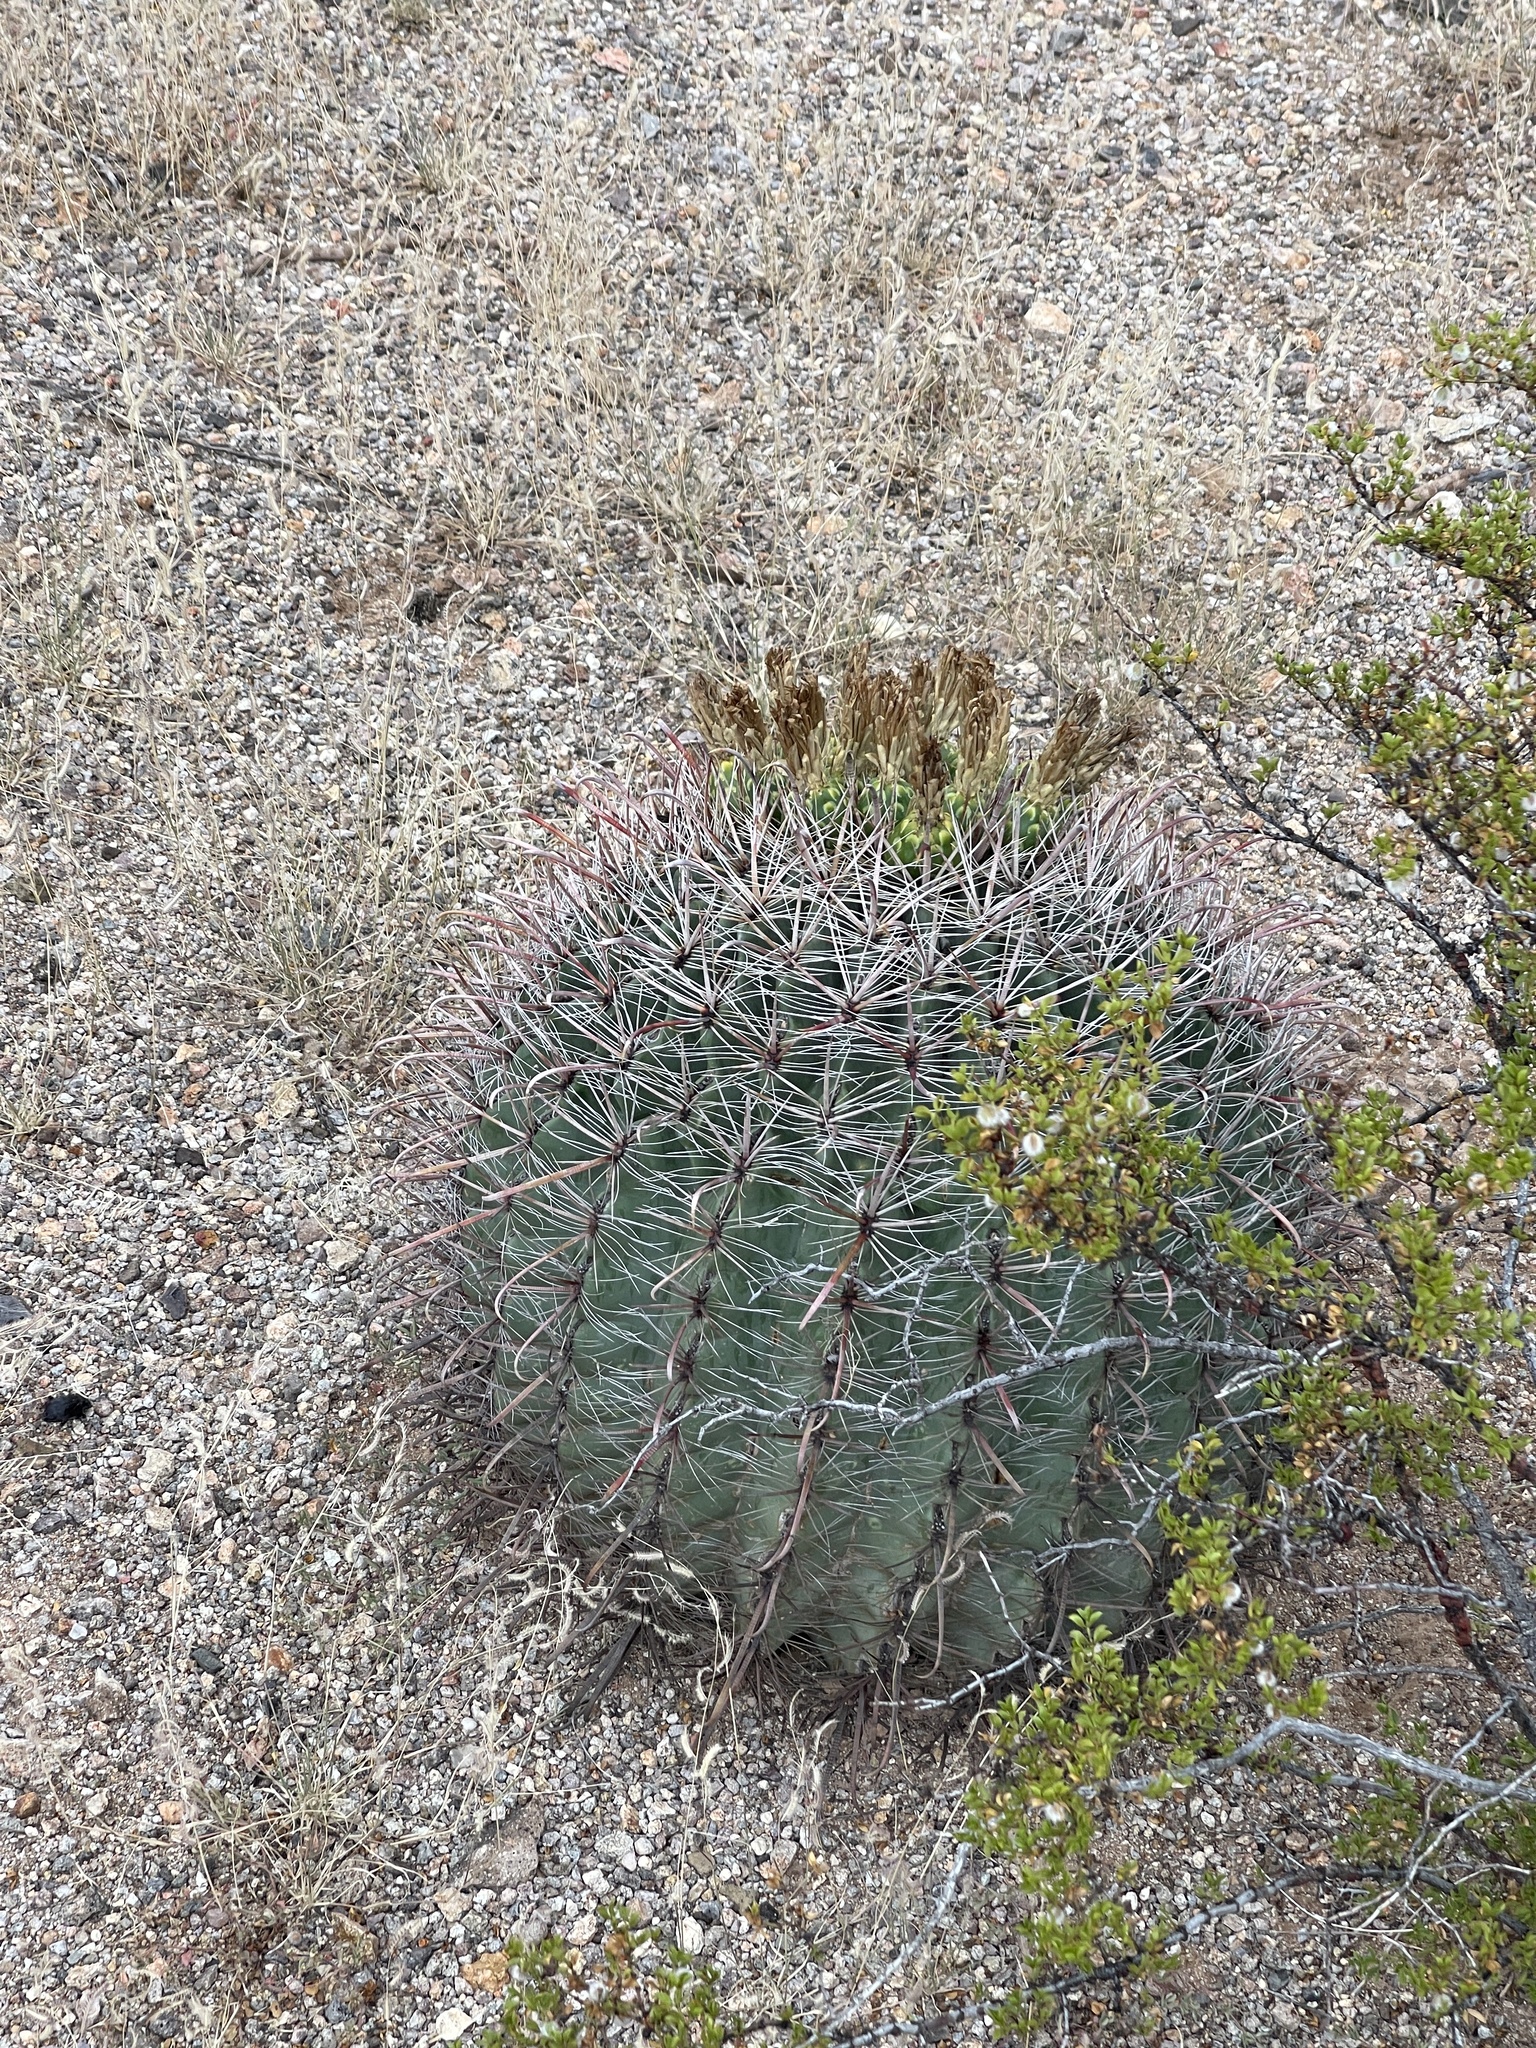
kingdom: Plantae
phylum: Tracheophyta
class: Magnoliopsida
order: Caryophyllales
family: Cactaceae
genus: Ferocactus
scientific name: Ferocactus wislizeni
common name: Candy barrel cactus
